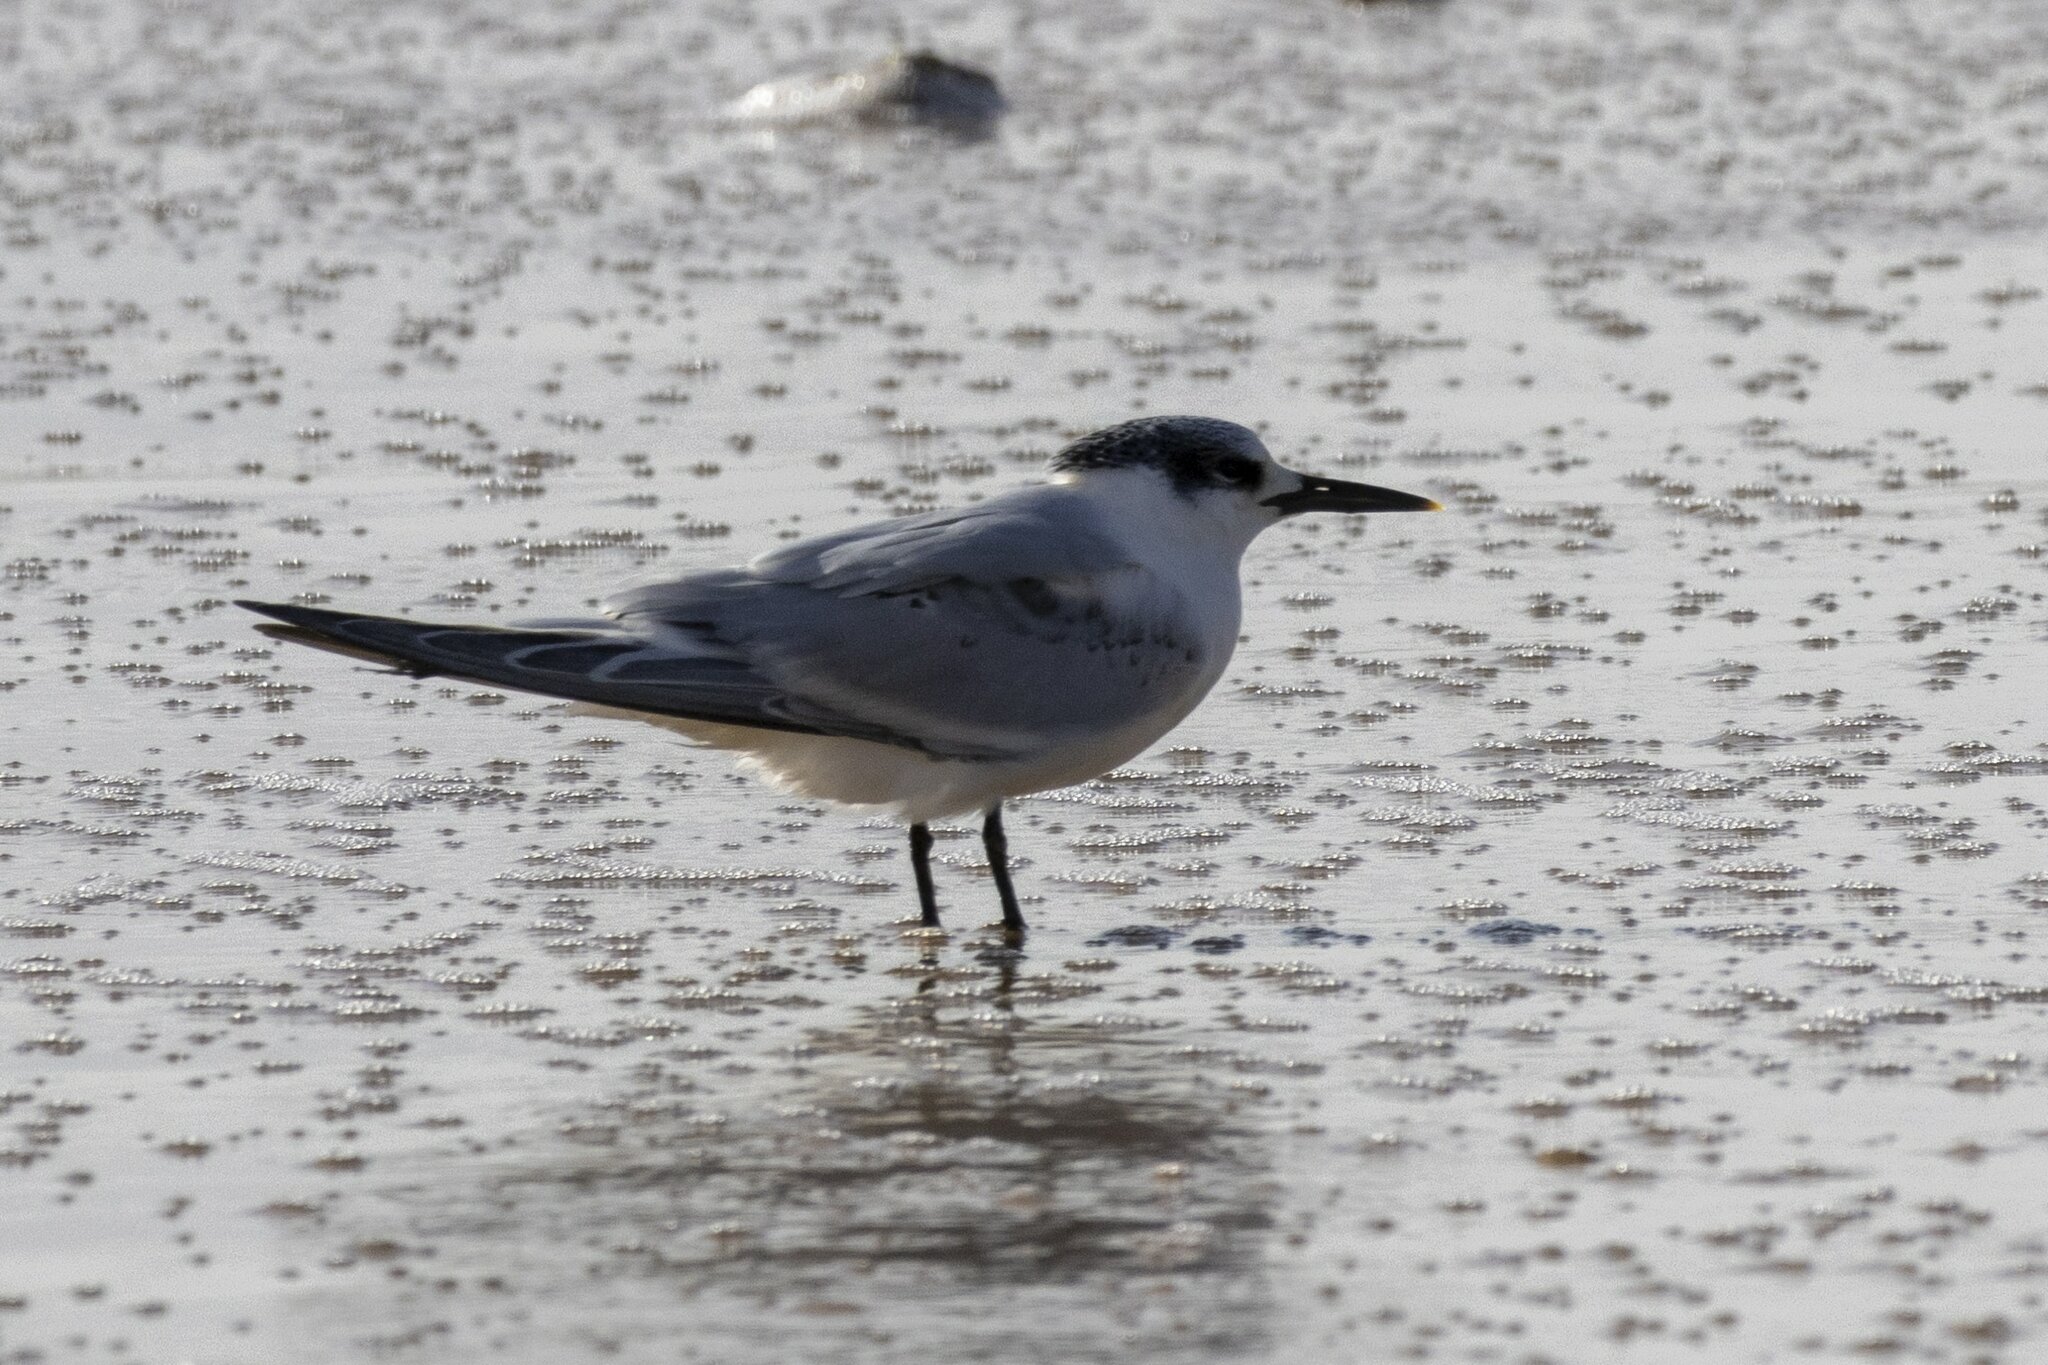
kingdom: Animalia
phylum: Chordata
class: Aves
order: Charadriiformes
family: Laridae
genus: Thalasseus
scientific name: Thalasseus sandvicensis
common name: Sandwich tern
